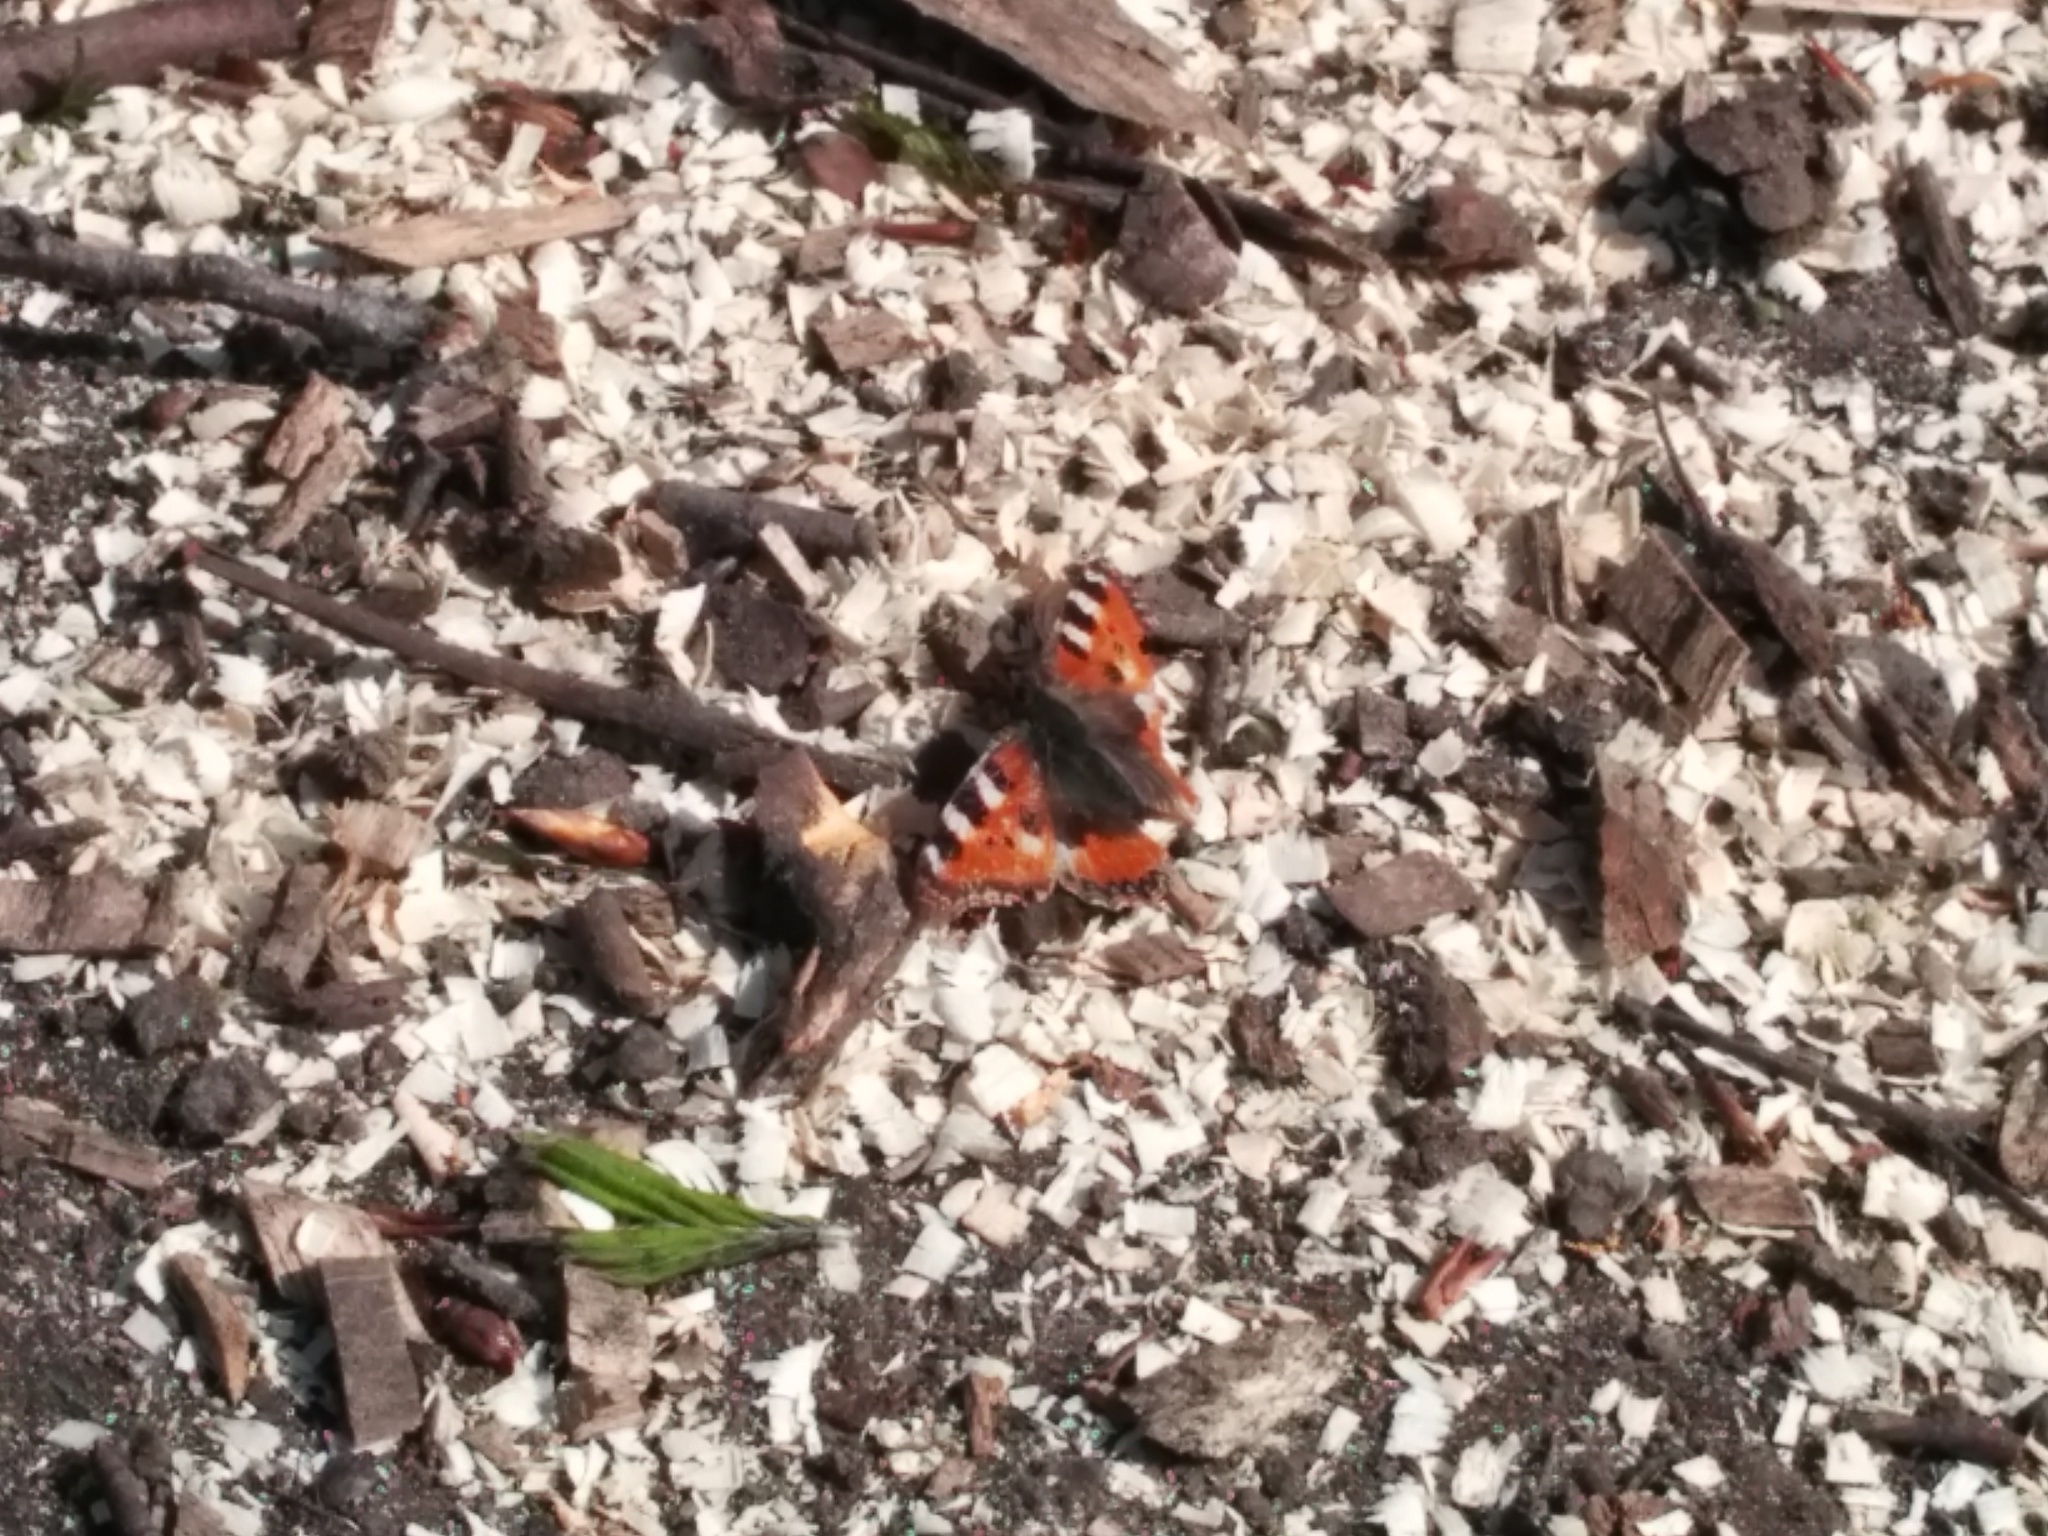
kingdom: Animalia
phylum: Arthropoda
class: Insecta
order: Lepidoptera
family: Nymphalidae
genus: Aglais
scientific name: Aglais urticae
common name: Small tortoiseshell
